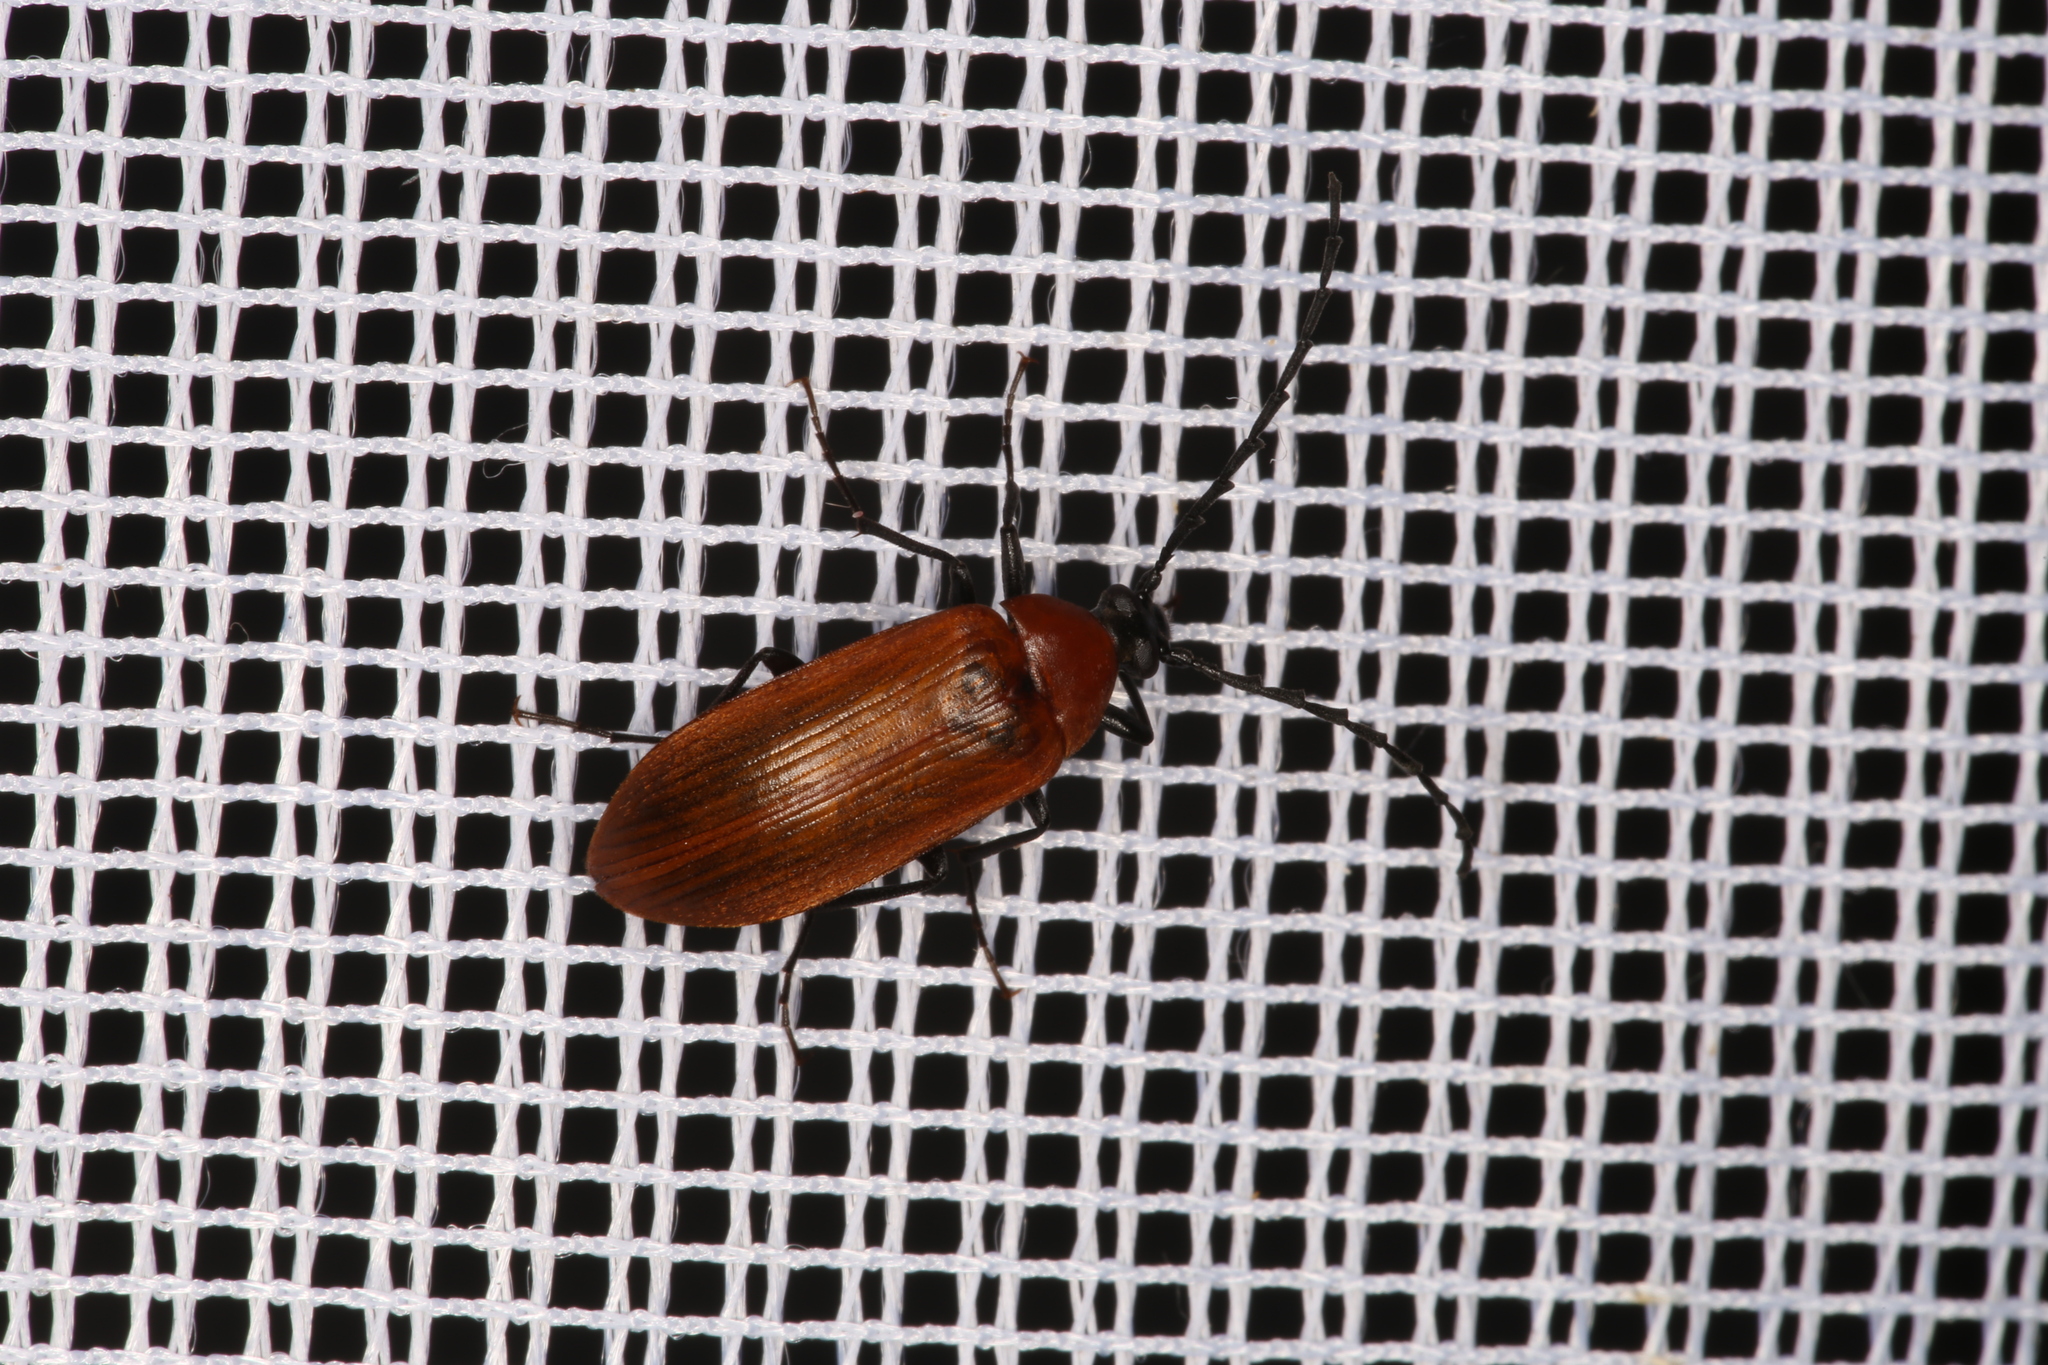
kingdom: Animalia
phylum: Arthropoda
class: Insecta
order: Coleoptera
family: Tenebrionidae
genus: Pseudocistela
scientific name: Pseudocistela ceramboides
